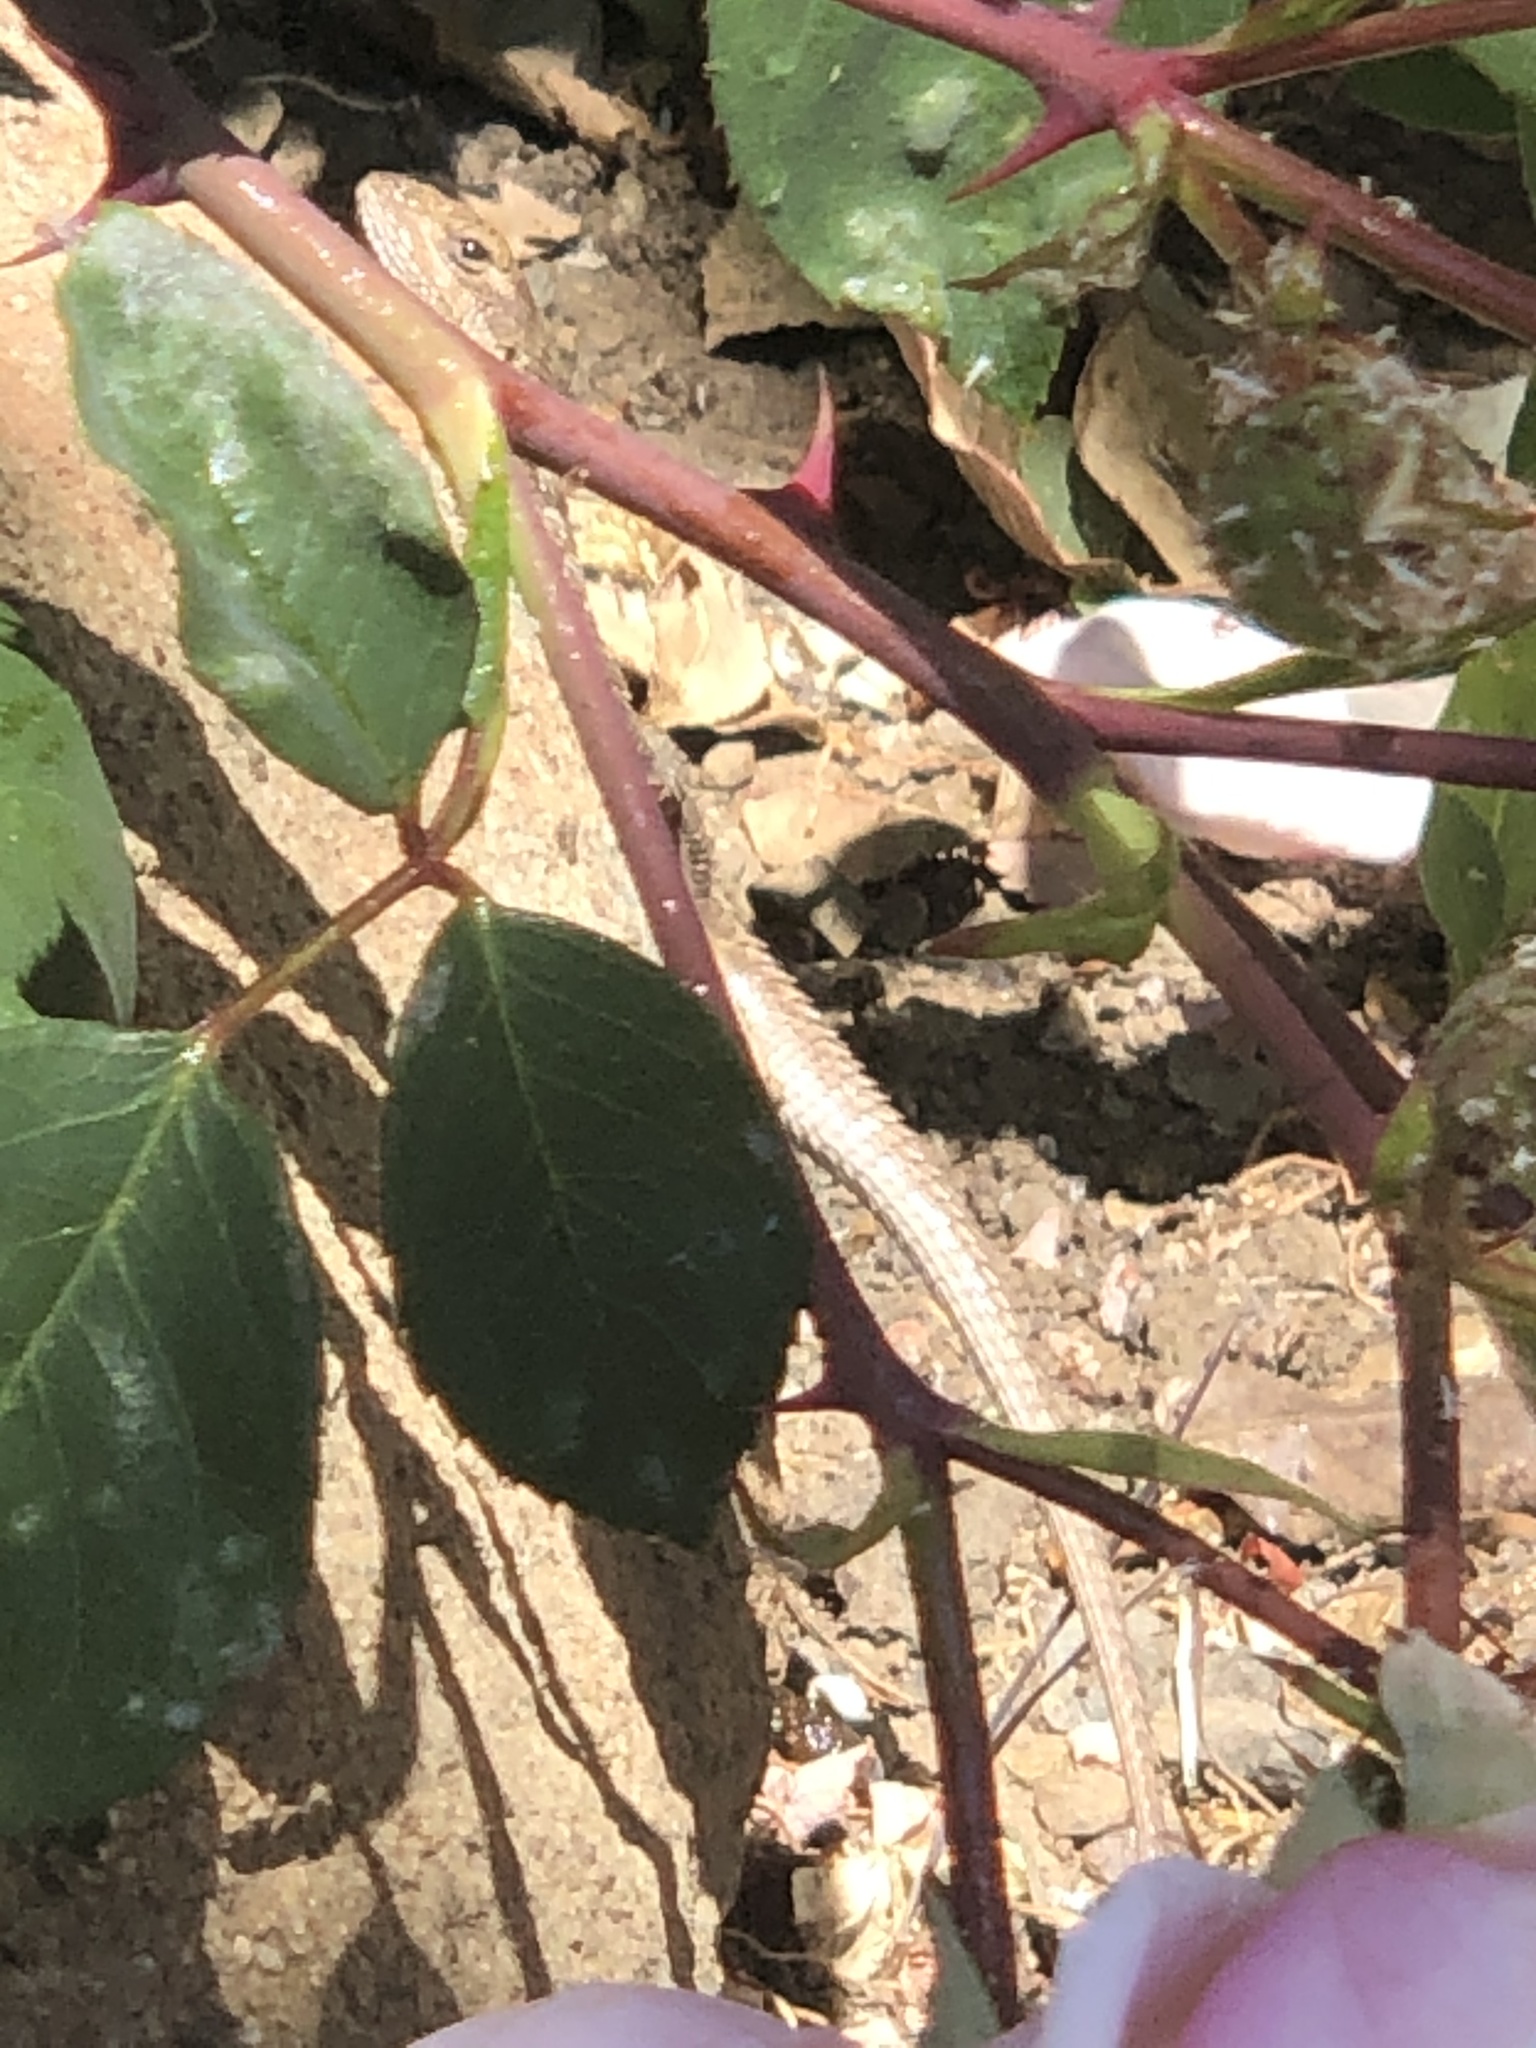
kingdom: Animalia
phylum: Chordata
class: Squamata
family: Phrynosomatidae
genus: Sceloporus
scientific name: Sceloporus occidentalis
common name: Western fence lizard
